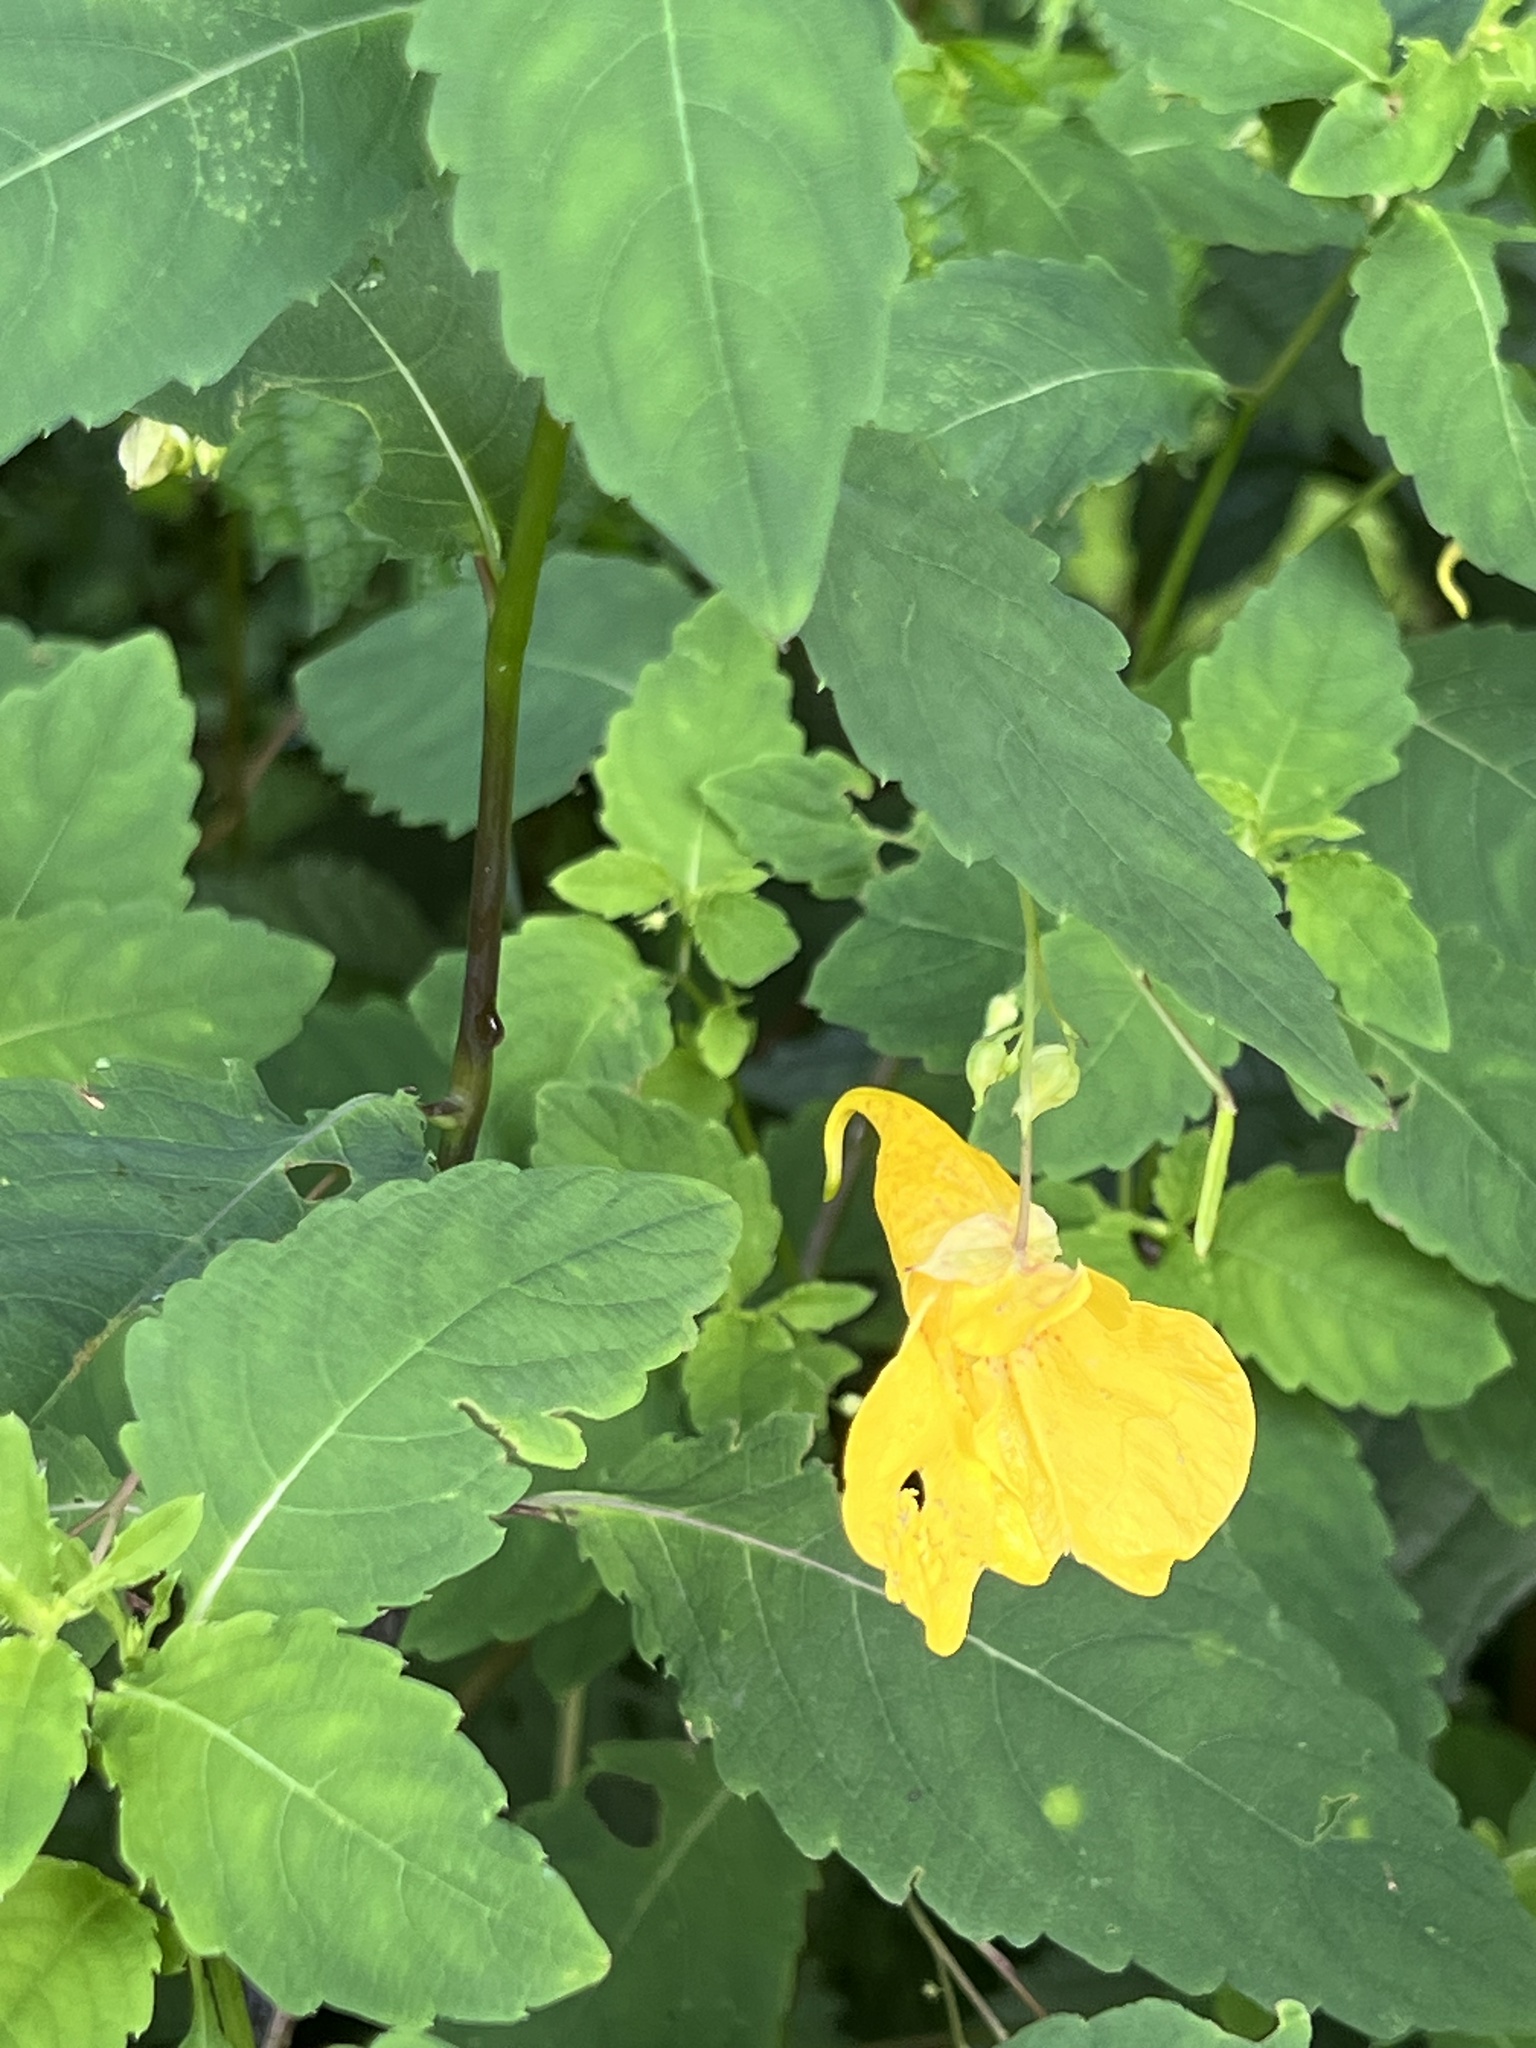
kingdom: Plantae
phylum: Tracheophyta
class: Magnoliopsida
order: Ericales
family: Balsaminaceae
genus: Impatiens
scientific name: Impatiens noli-tangere
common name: Touch-me-not balsam
